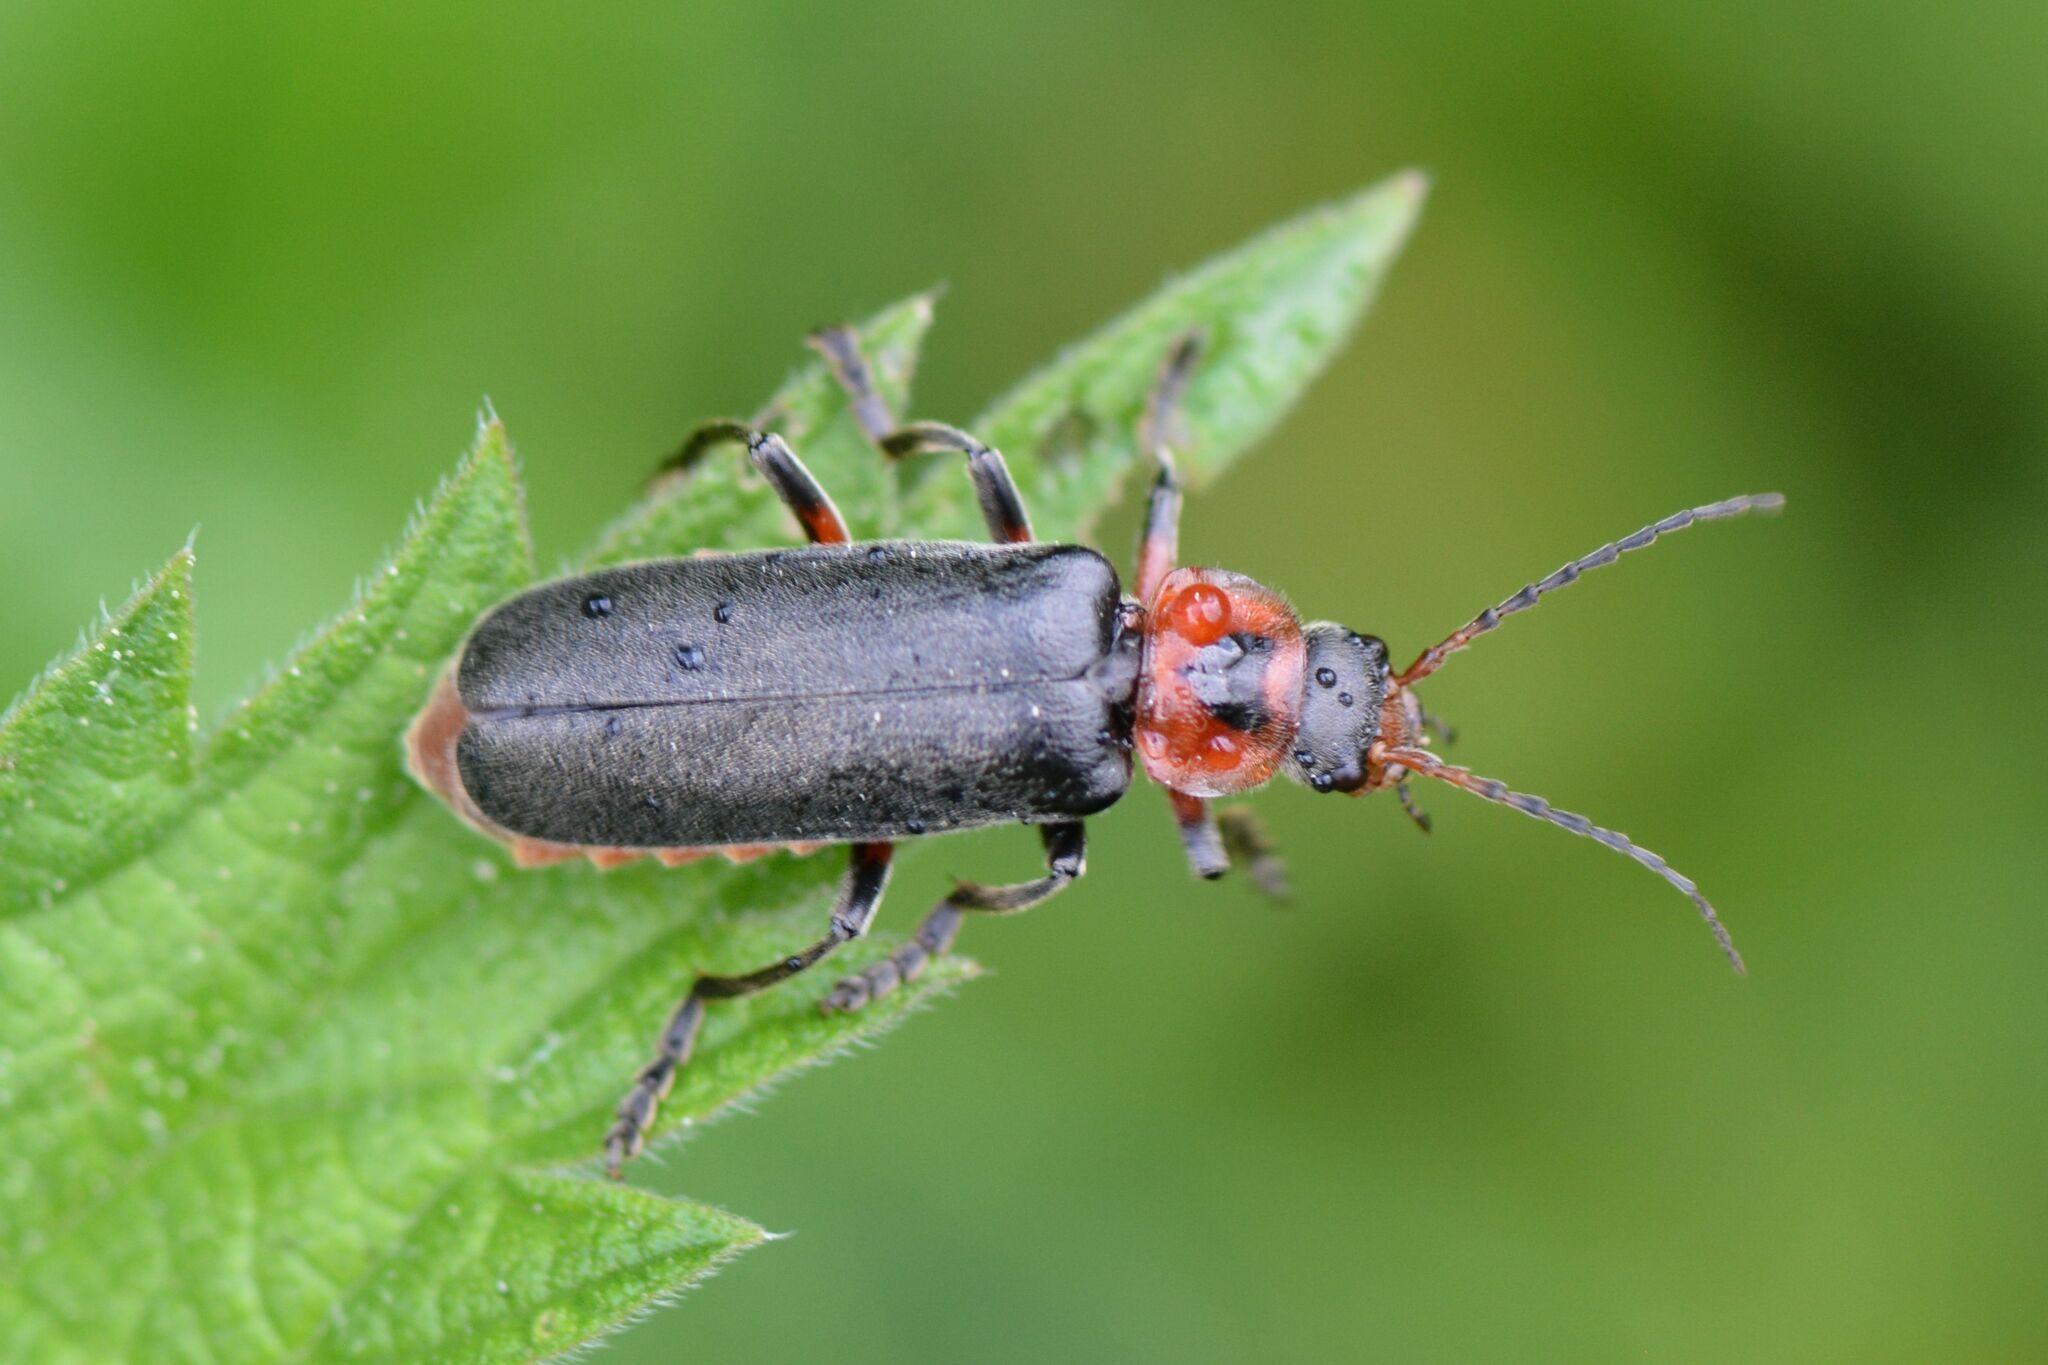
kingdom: Animalia
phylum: Arthropoda
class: Insecta
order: Coleoptera
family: Cantharidae
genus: Cantharis
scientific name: Cantharis rustica
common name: Soldier beetle
